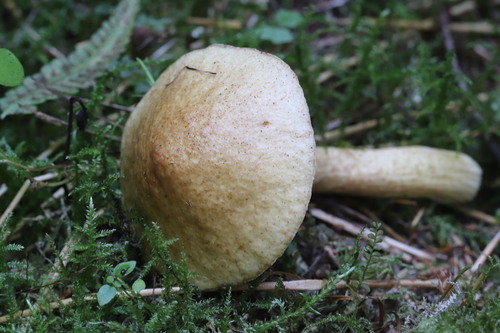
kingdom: Fungi
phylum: Basidiomycota
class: Agaricomycetes
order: Boletales
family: Suillaceae
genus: Suillus
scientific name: Suillus plorans
